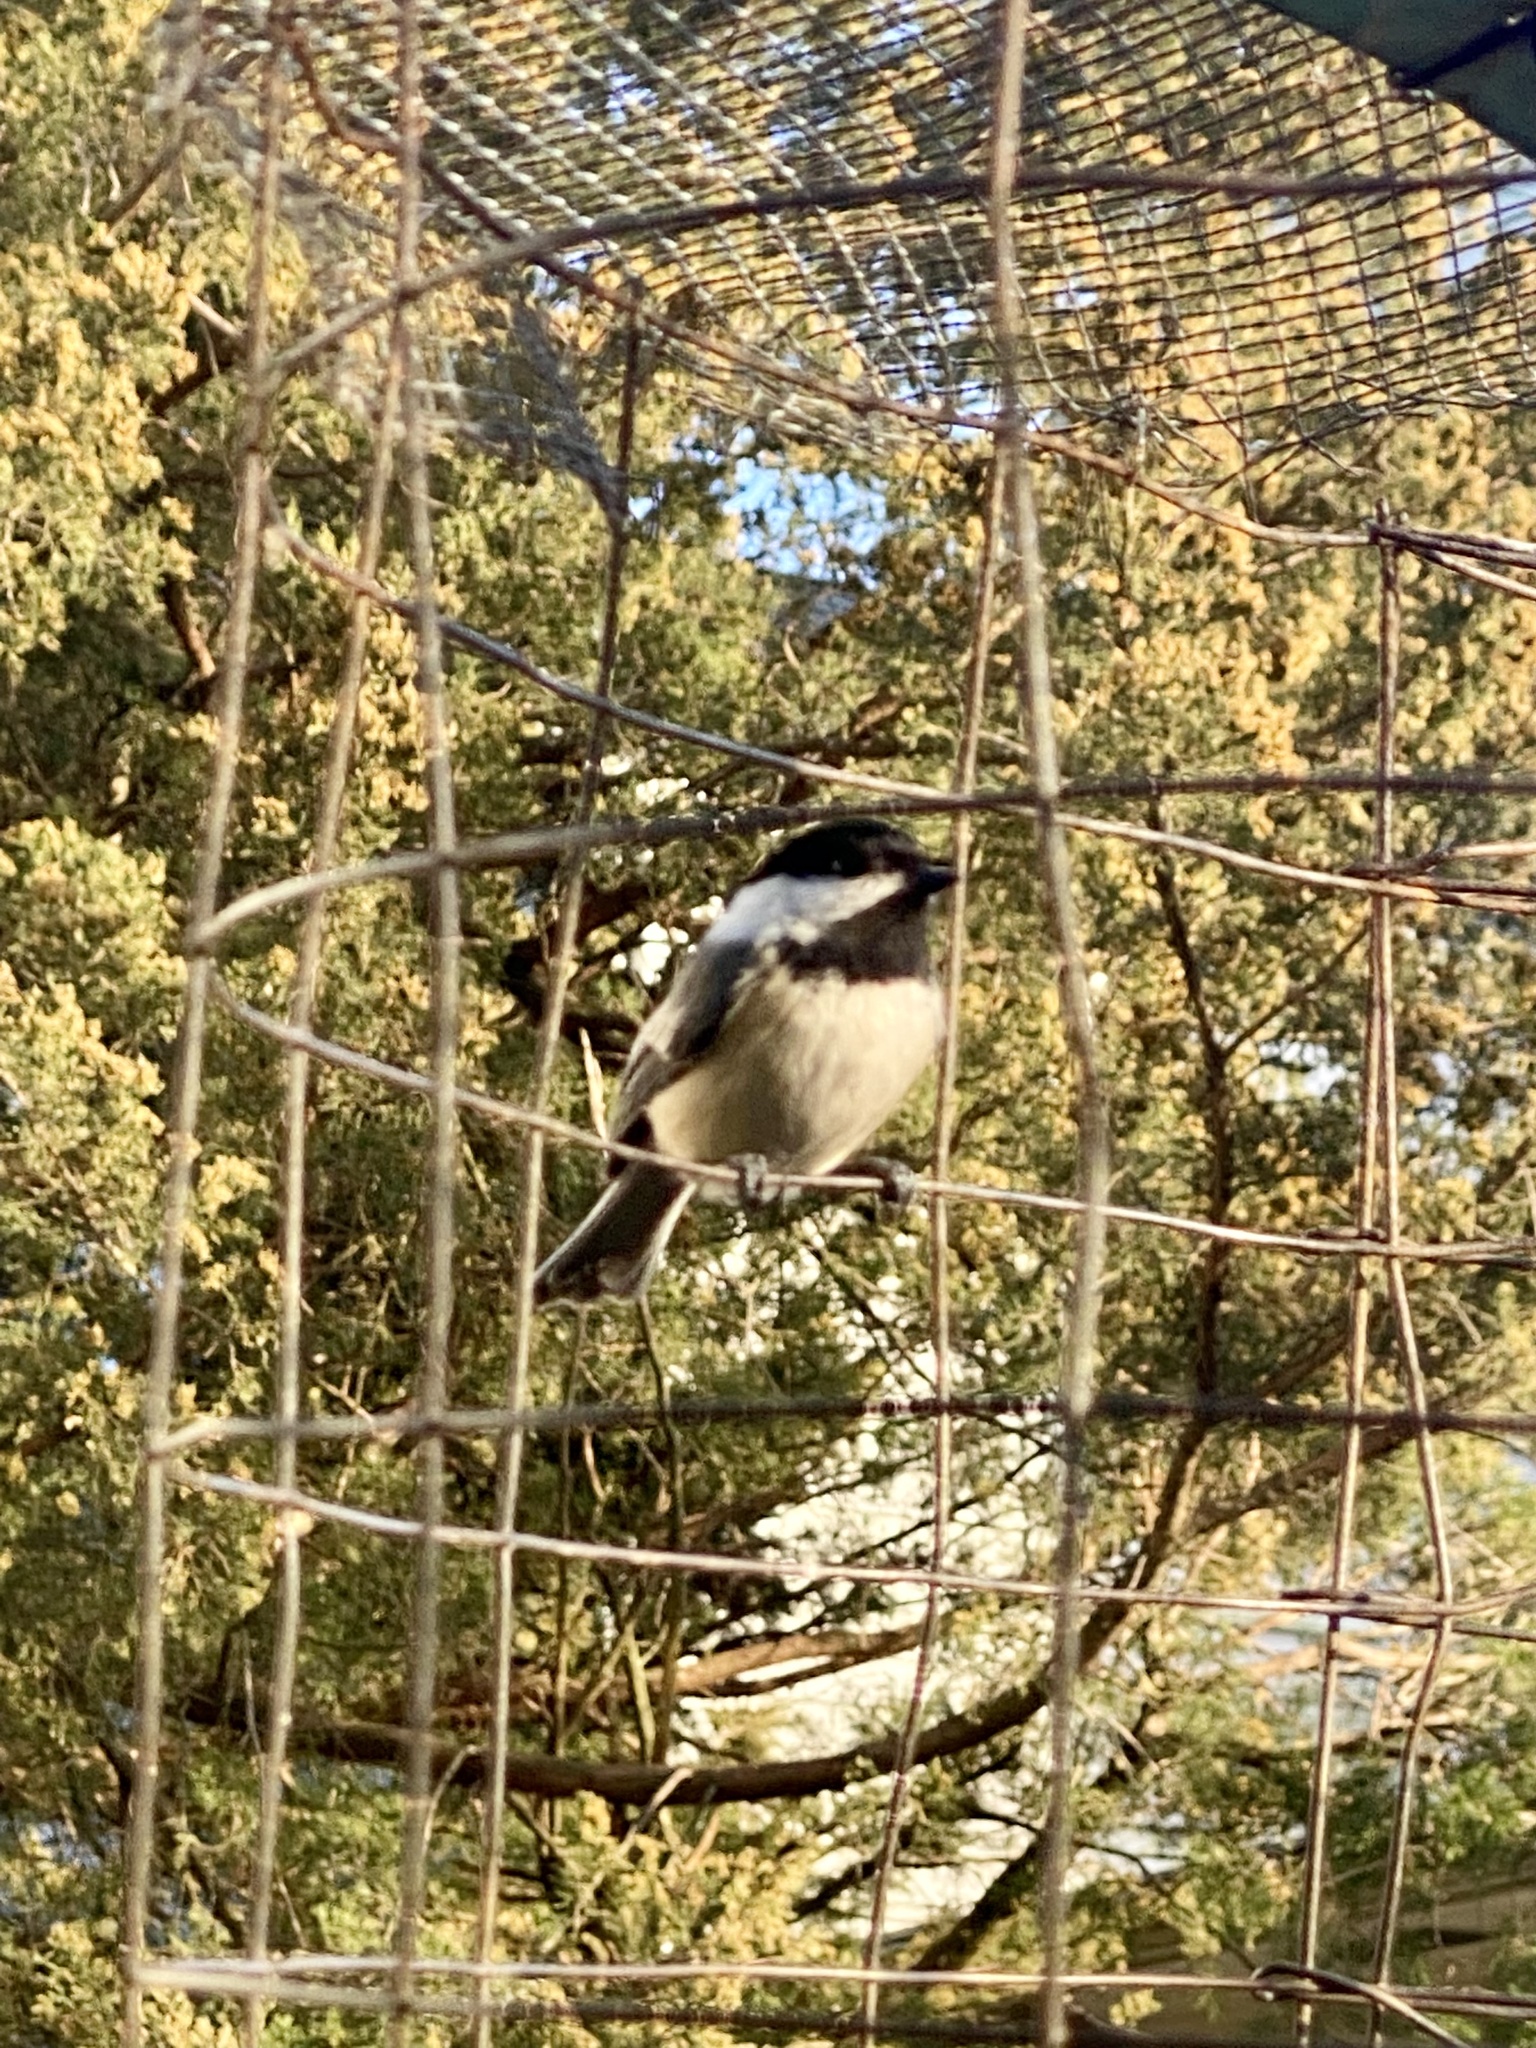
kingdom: Animalia
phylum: Chordata
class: Aves
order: Passeriformes
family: Paridae
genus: Poecile
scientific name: Poecile atricapillus
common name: Black-capped chickadee
